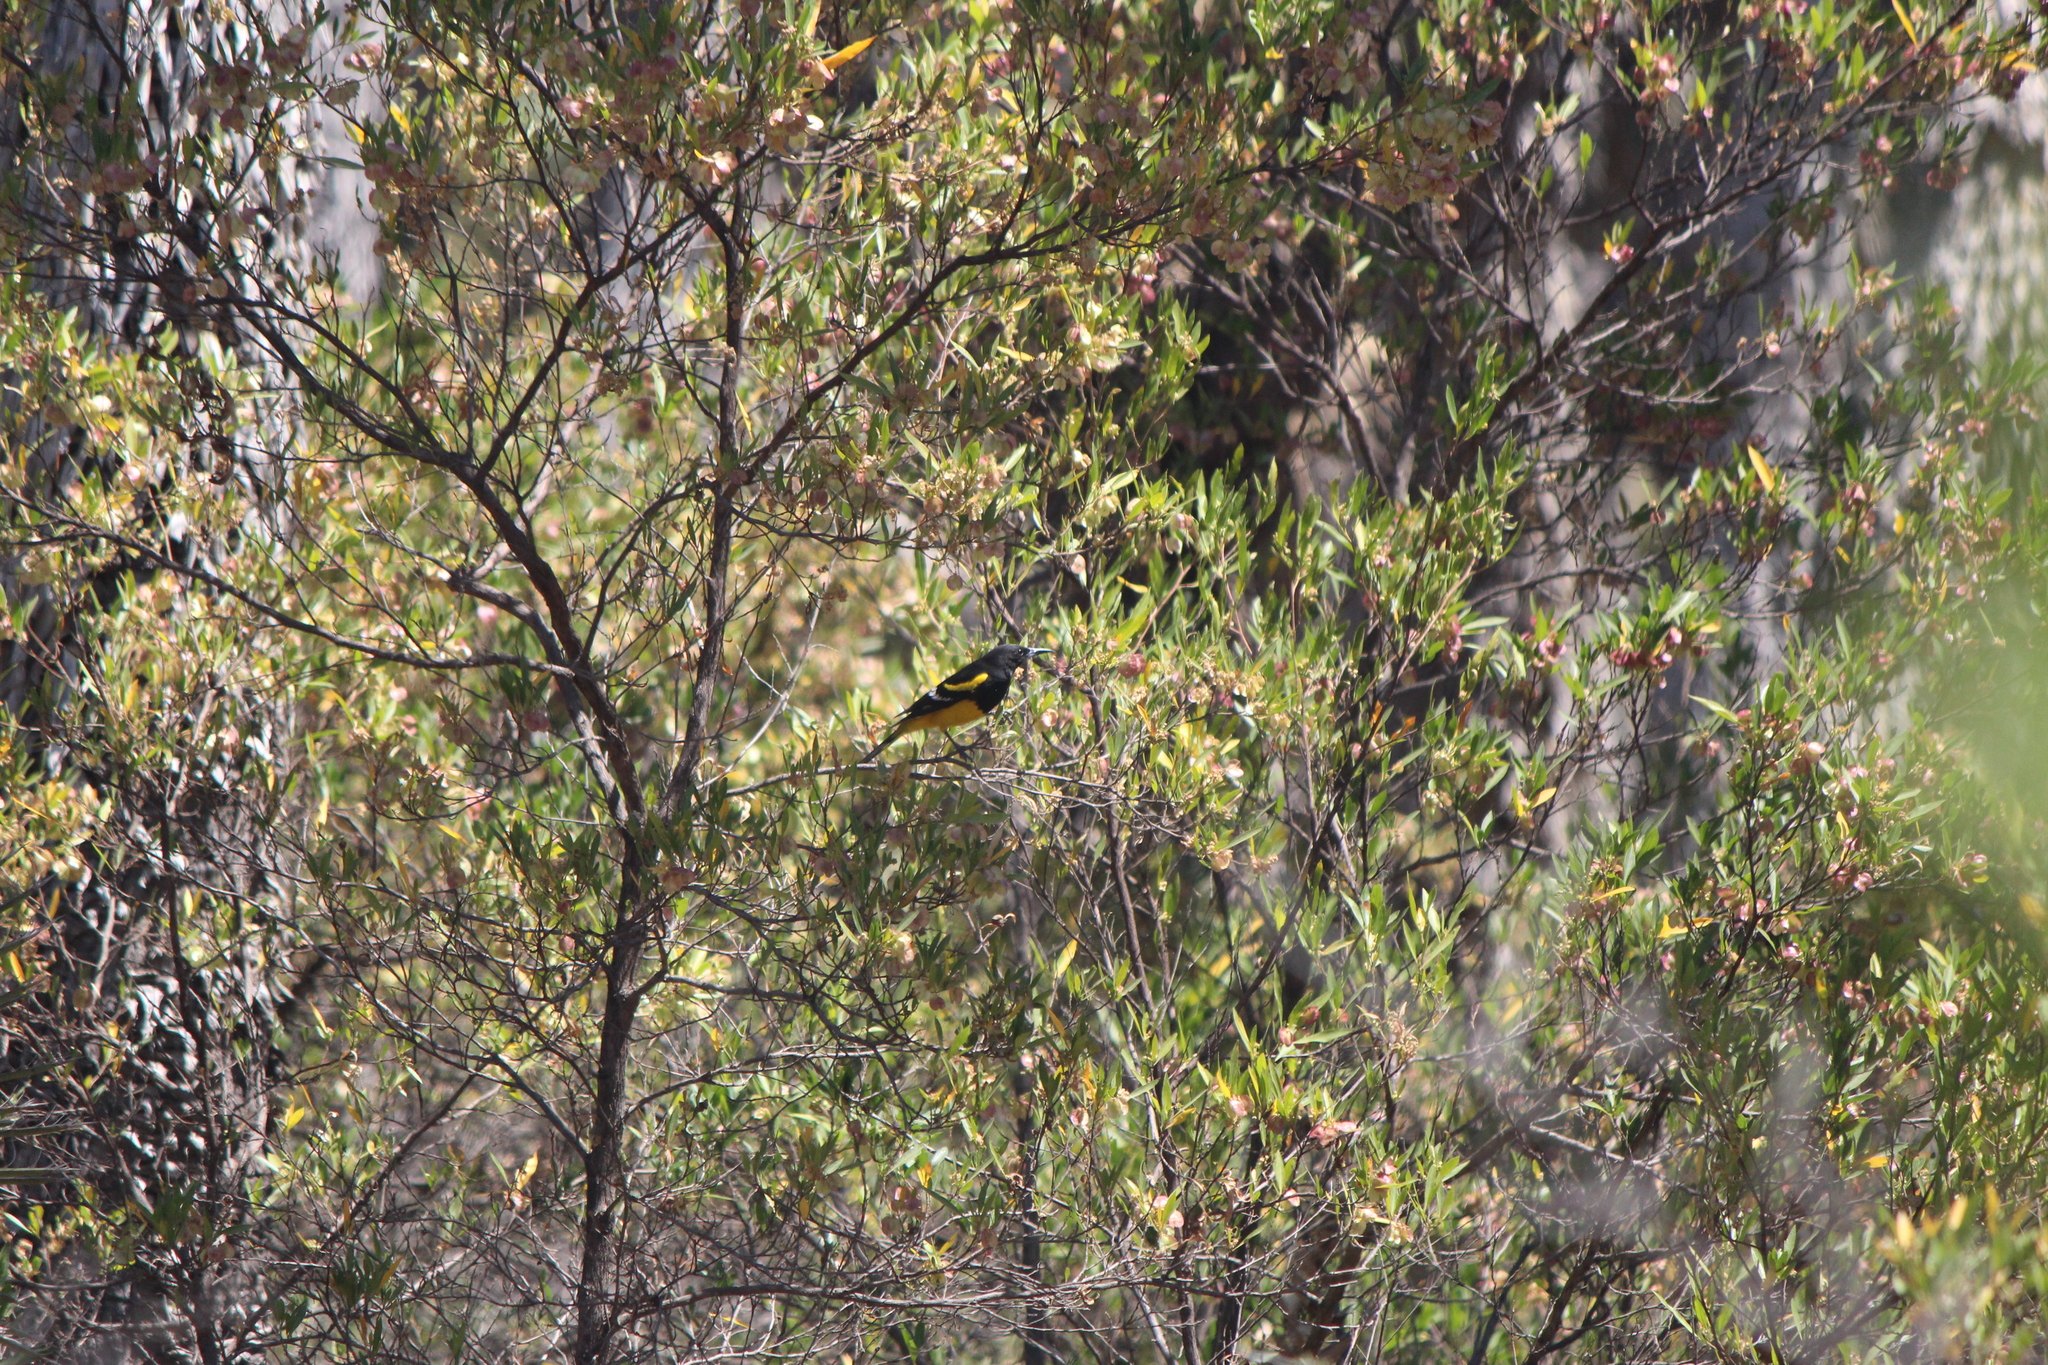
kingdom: Animalia
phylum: Chordata
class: Aves
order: Passeriformes
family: Icteridae
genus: Icterus
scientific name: Icterus parisorum
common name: Scott's oriole
